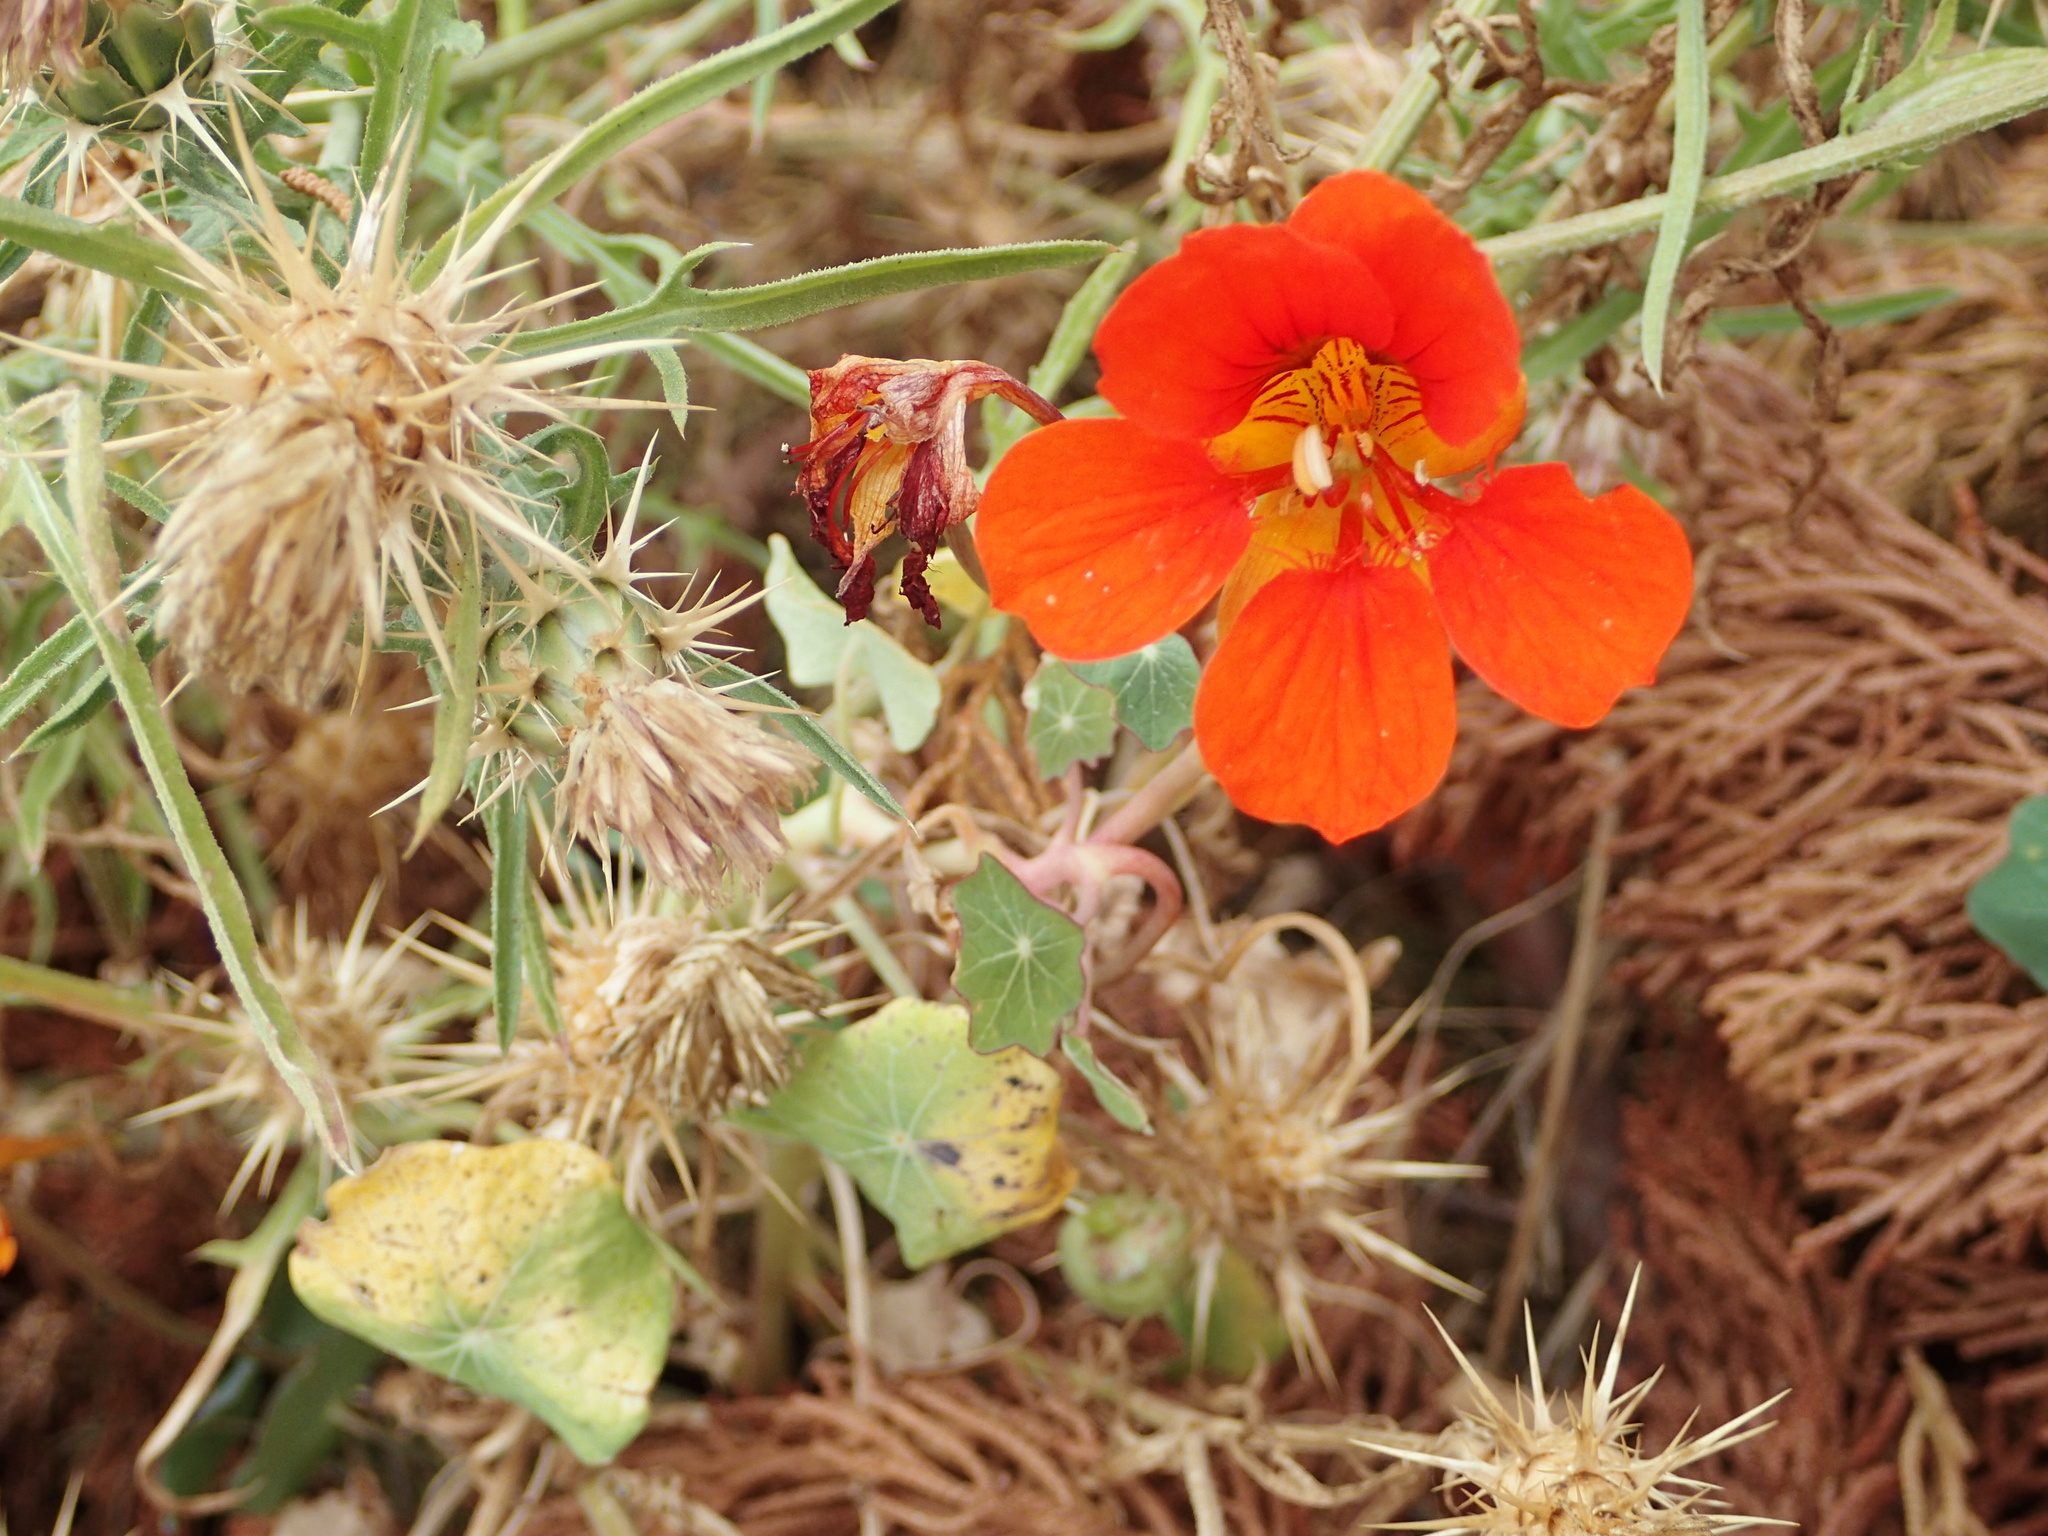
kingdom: Plantae
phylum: Tracheophyta
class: Magnoliopsida
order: Brassicales
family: Tropaeolaceae
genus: Tropaeolum
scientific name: Tropaeolum majus
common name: Nasturtium
